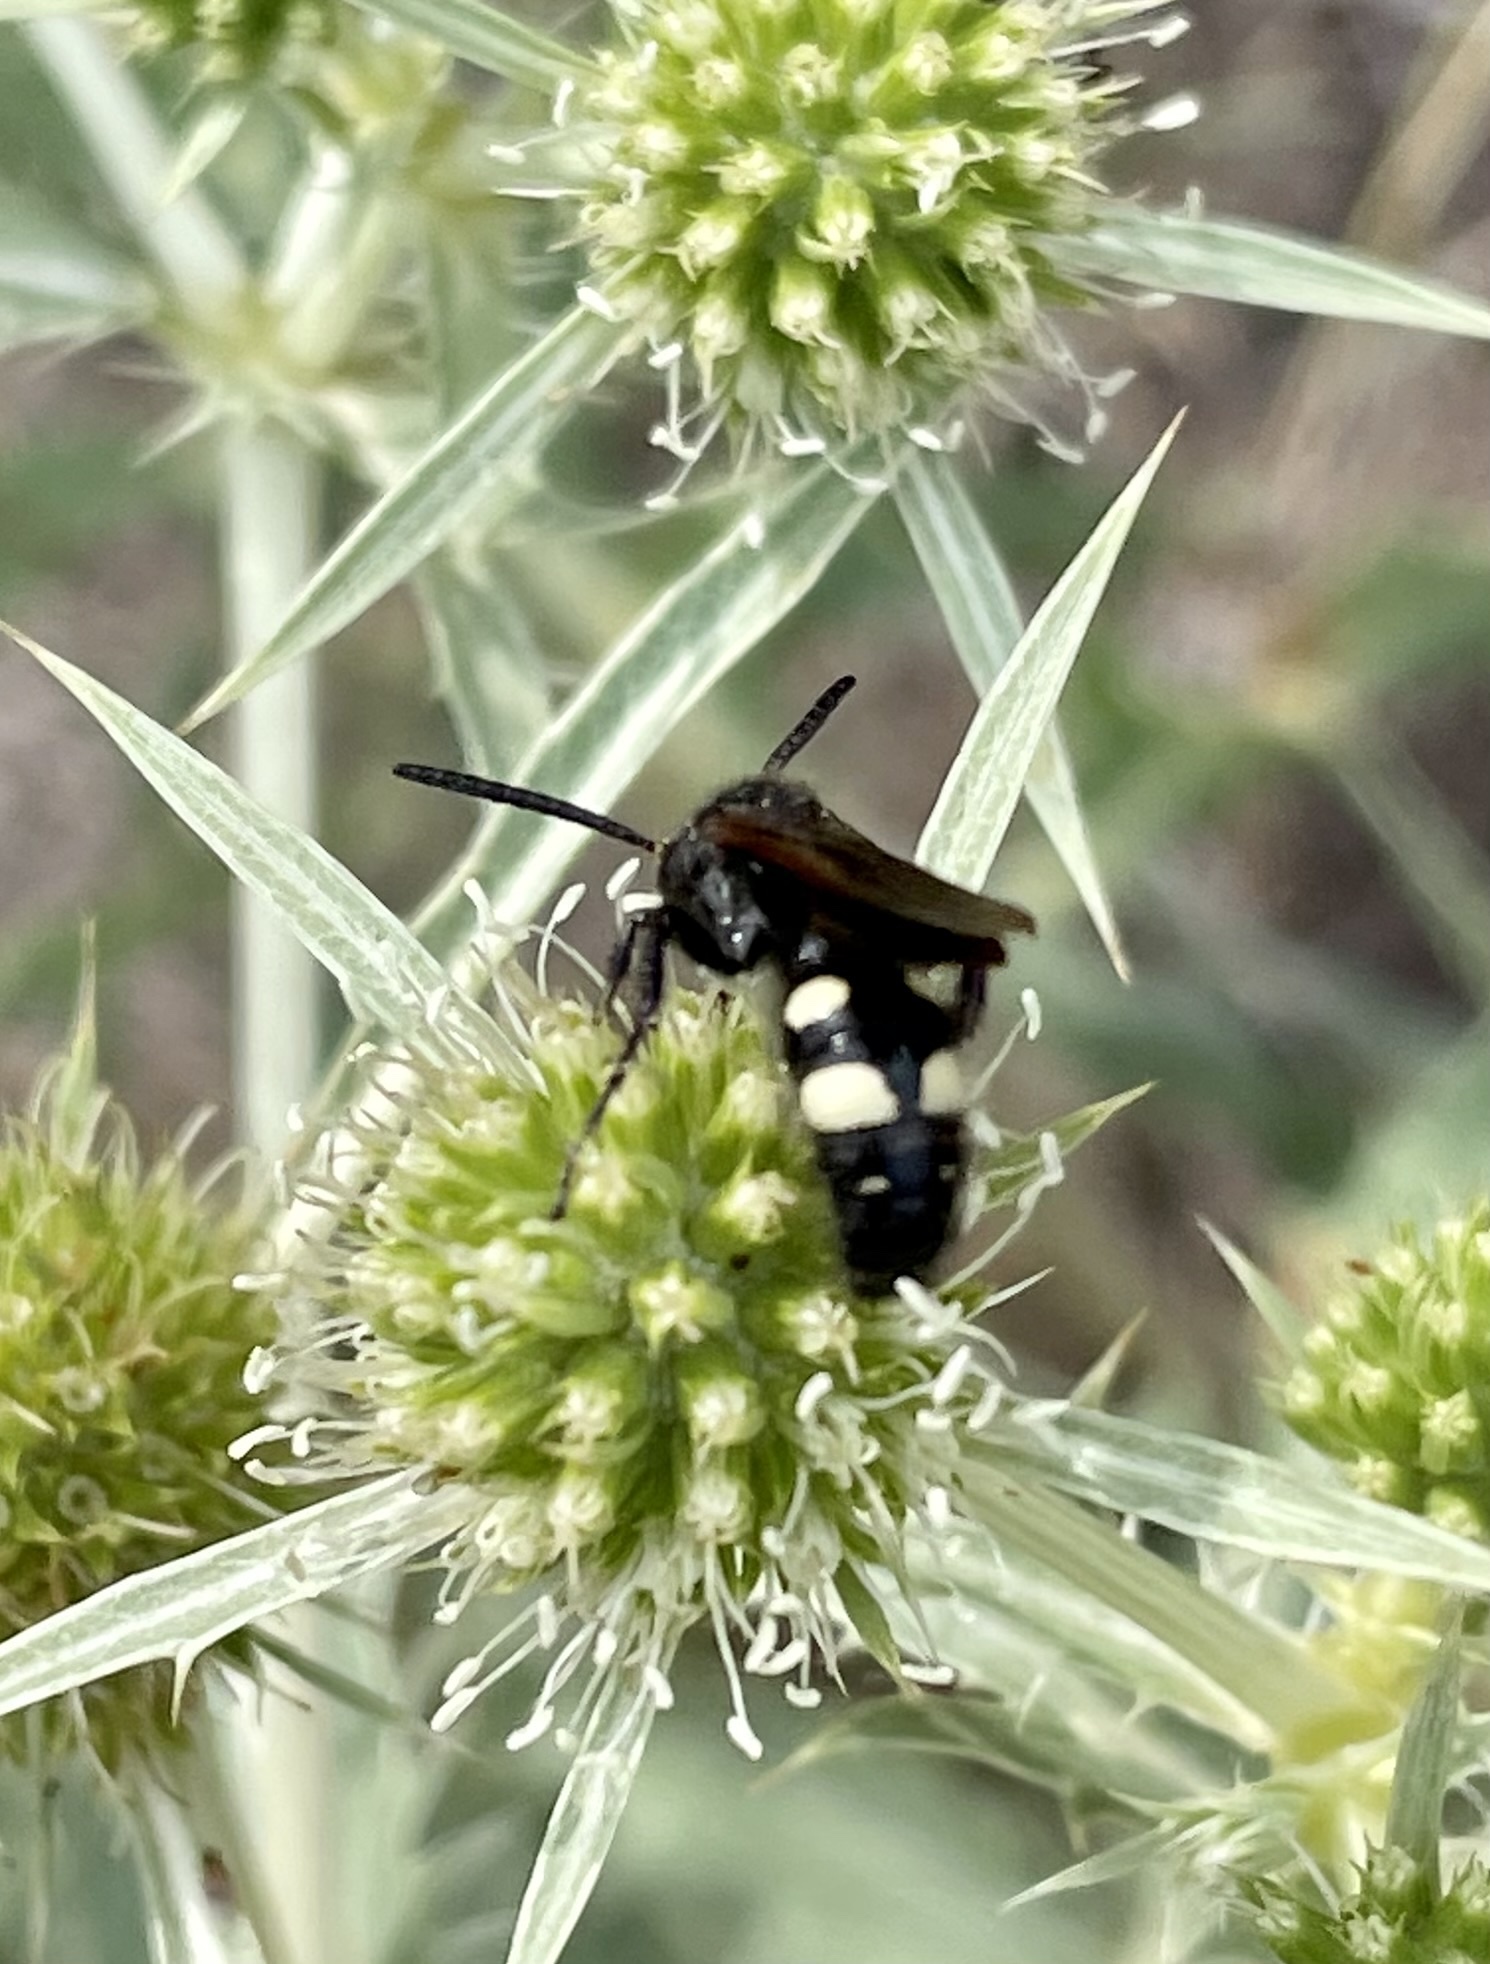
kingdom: Animalia
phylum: Arthropoda
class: Insecta
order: Hymenoptera
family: Vespidae
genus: Vespa
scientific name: Vespa sexmaculata
